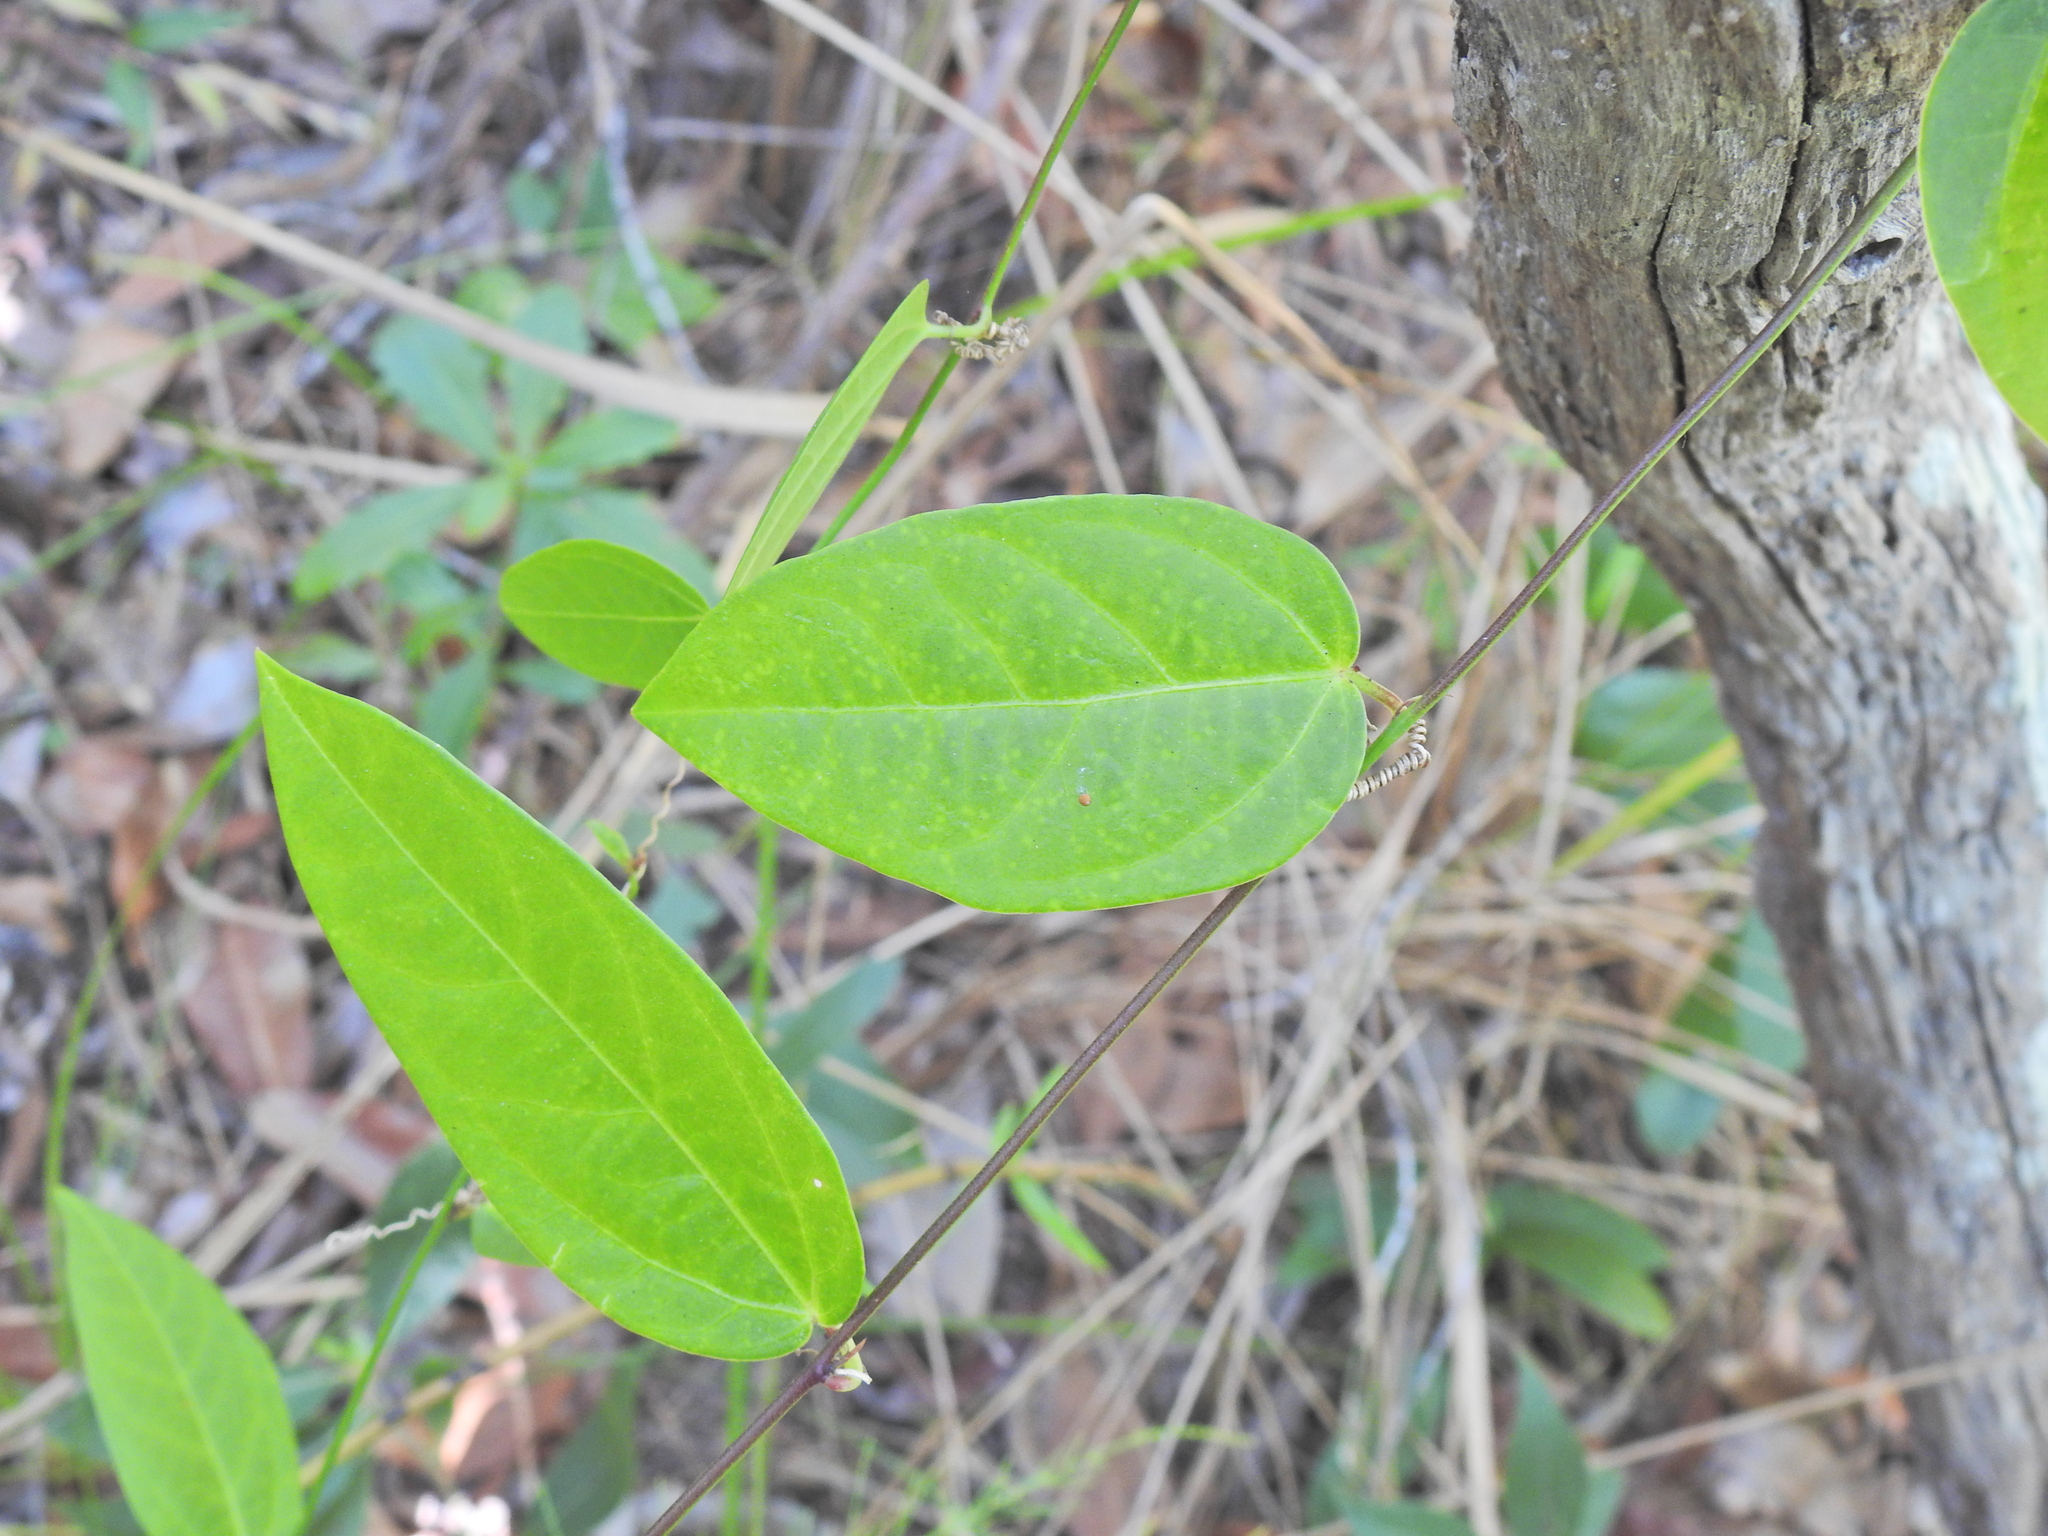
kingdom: Plantae
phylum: Tracheophyta
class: Magnoliopsida
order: Malpighiales
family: Passifloraceae
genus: Passiflora
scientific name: Passiflora pallida
